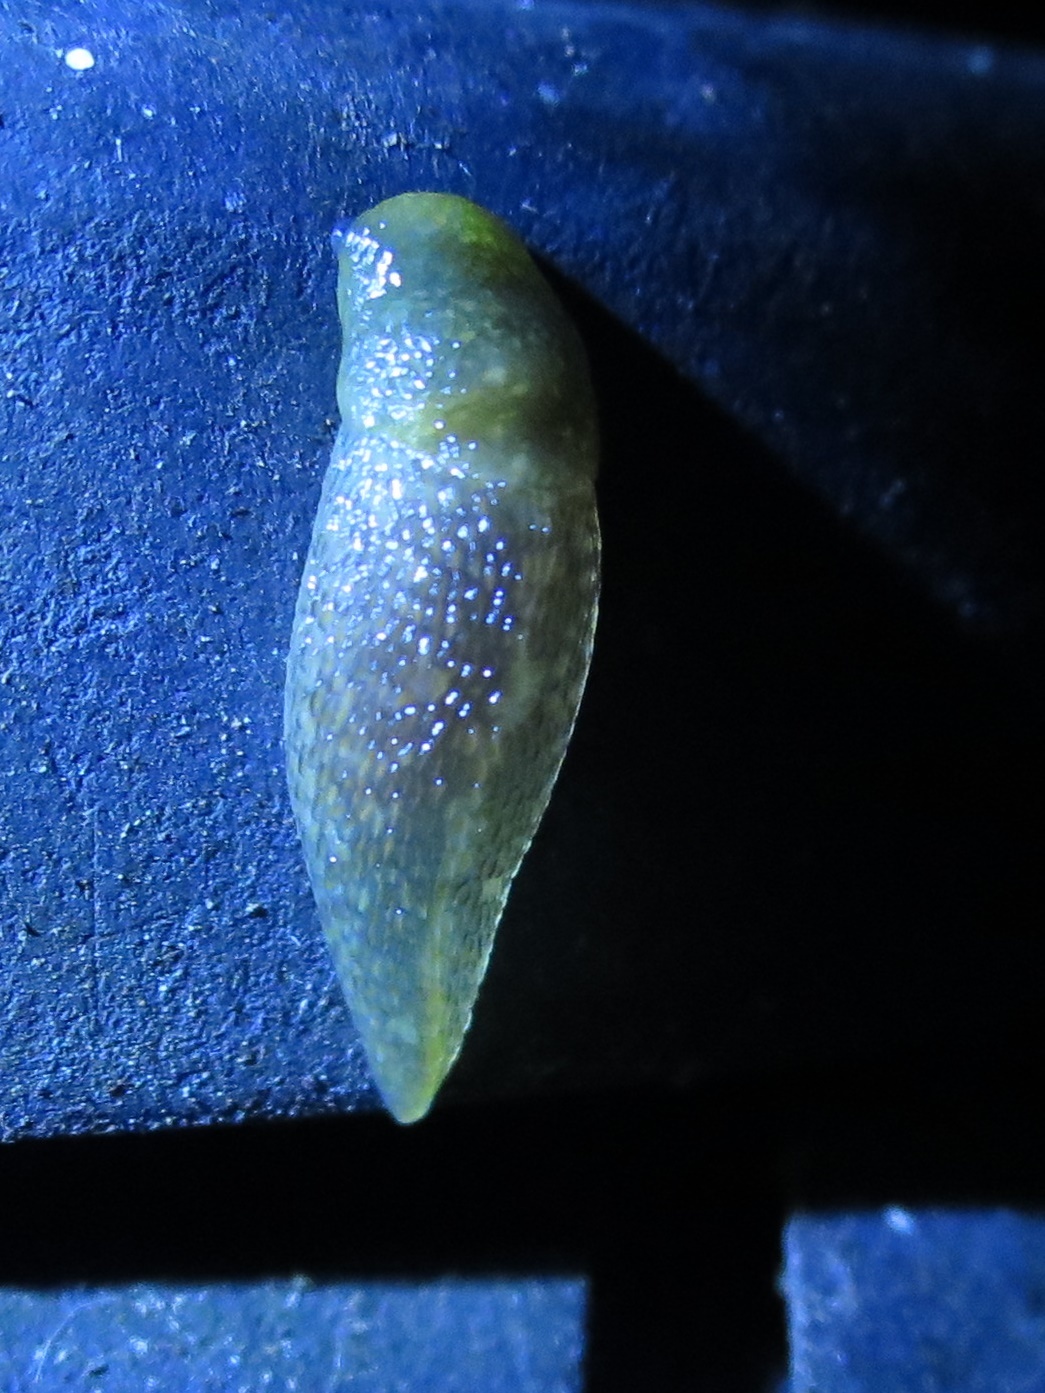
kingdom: Animalia
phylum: Mollusca
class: Gastropoda
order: Stylommatophora
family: Limacidae
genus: Limacus
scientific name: Limacus flavus
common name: Yellow gardenslug
